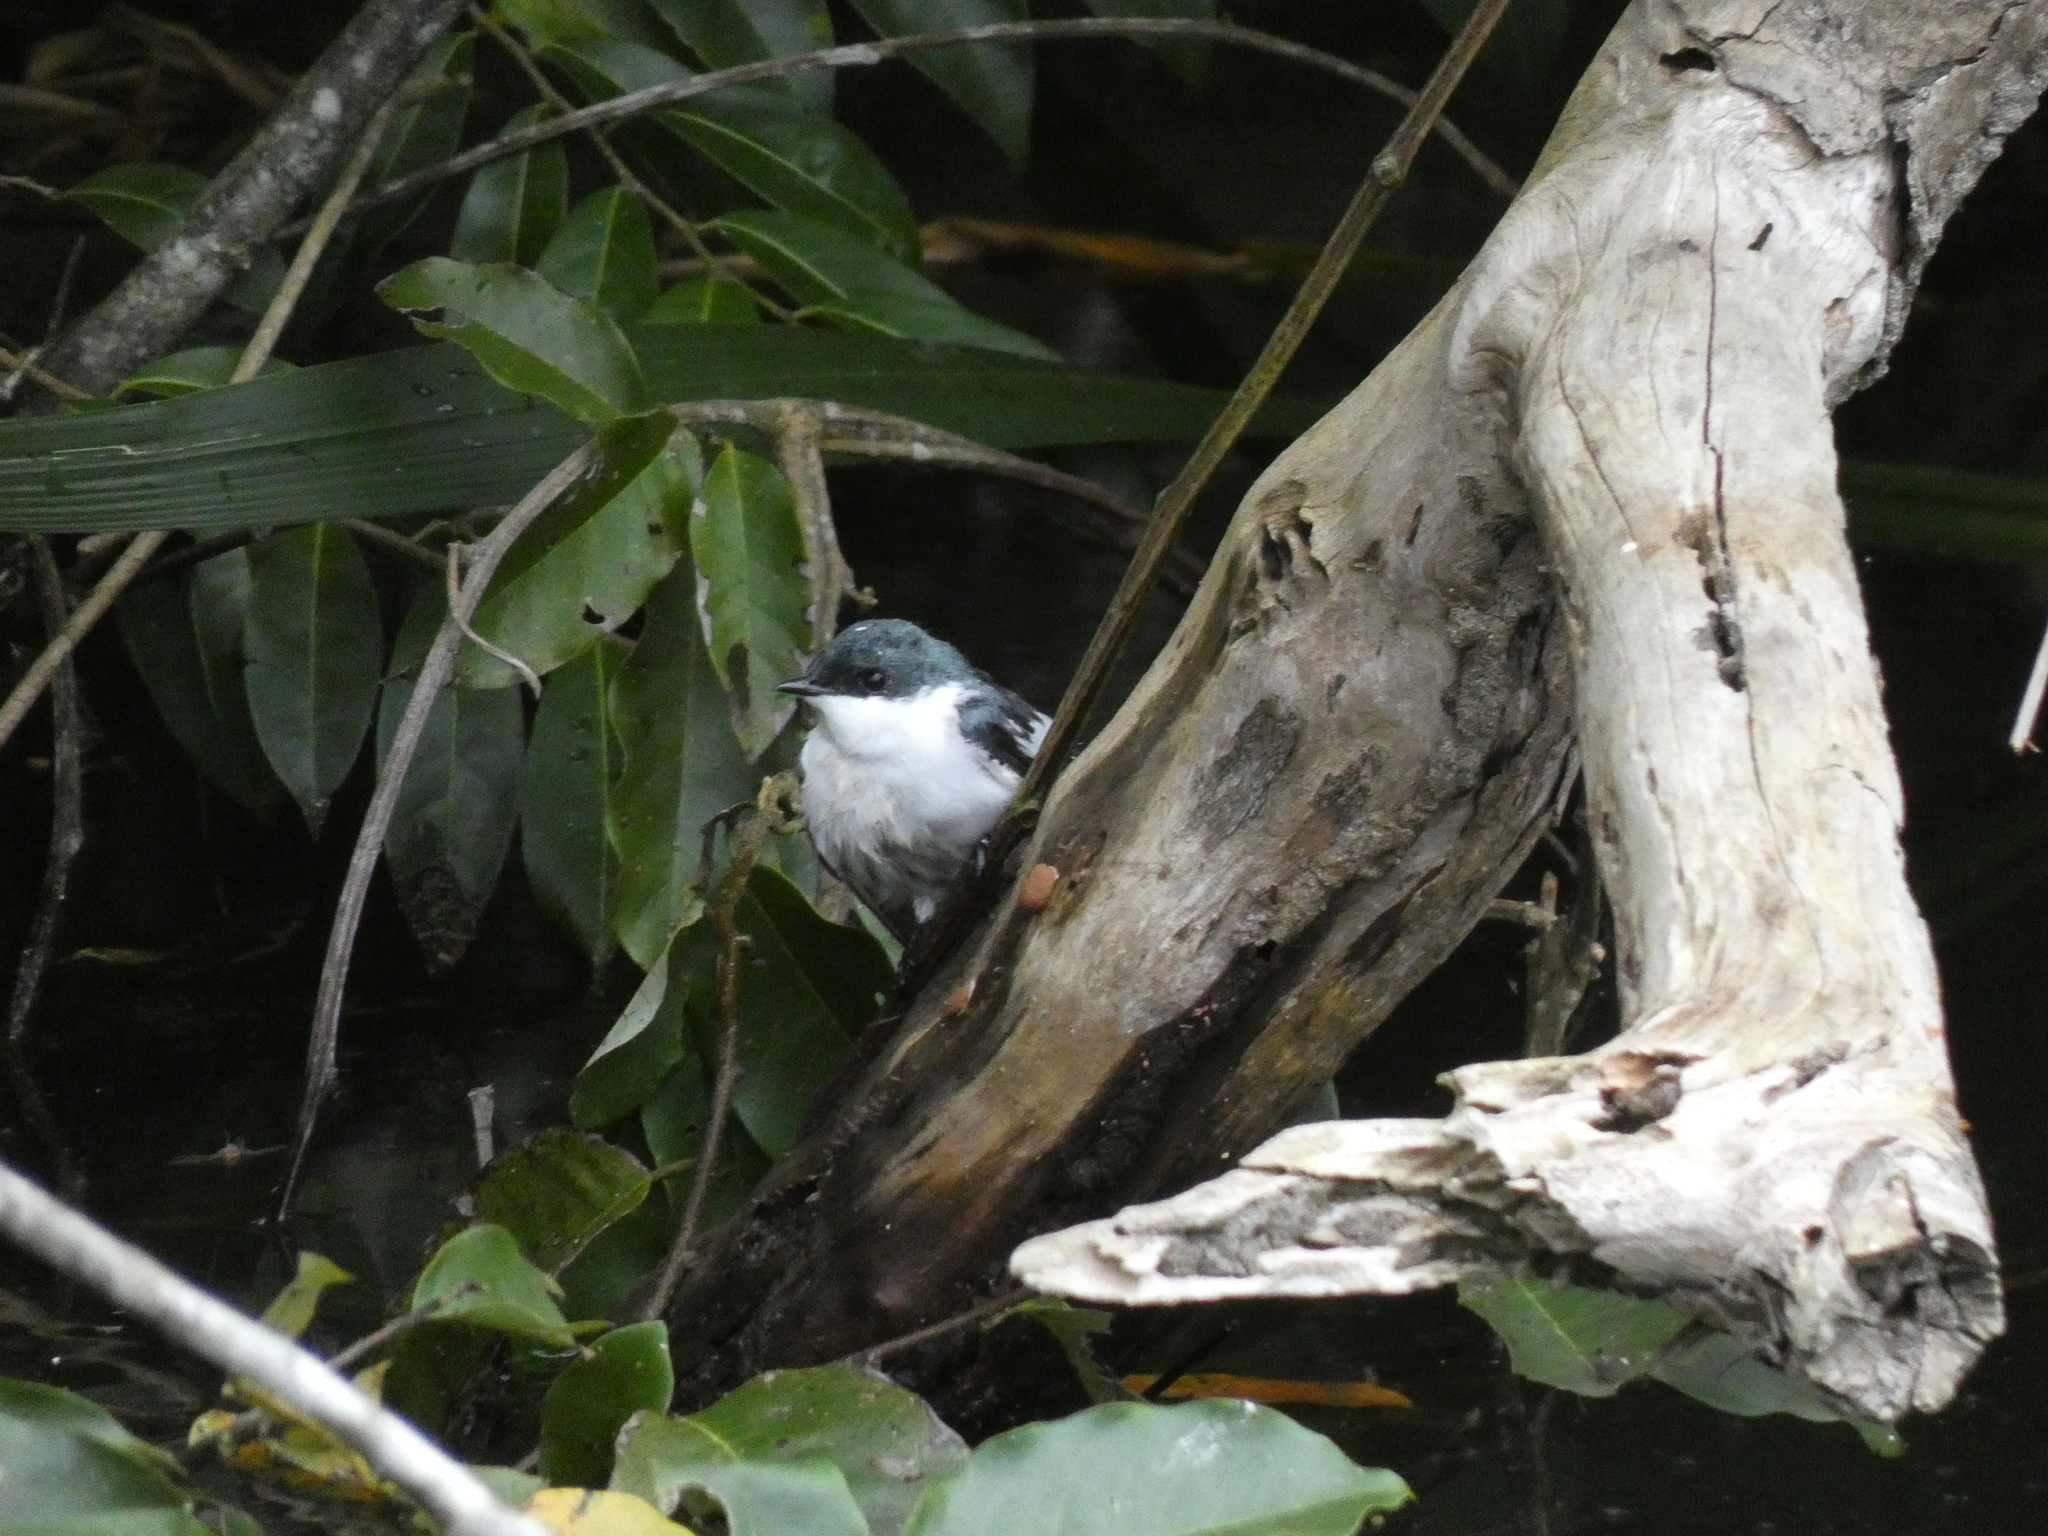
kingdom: Animalia
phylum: Chordata
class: Aves
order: Passeriformes
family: Hirundinidae
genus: Tachycineta
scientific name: Tachycineta albiventer
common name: White-winged swallow
